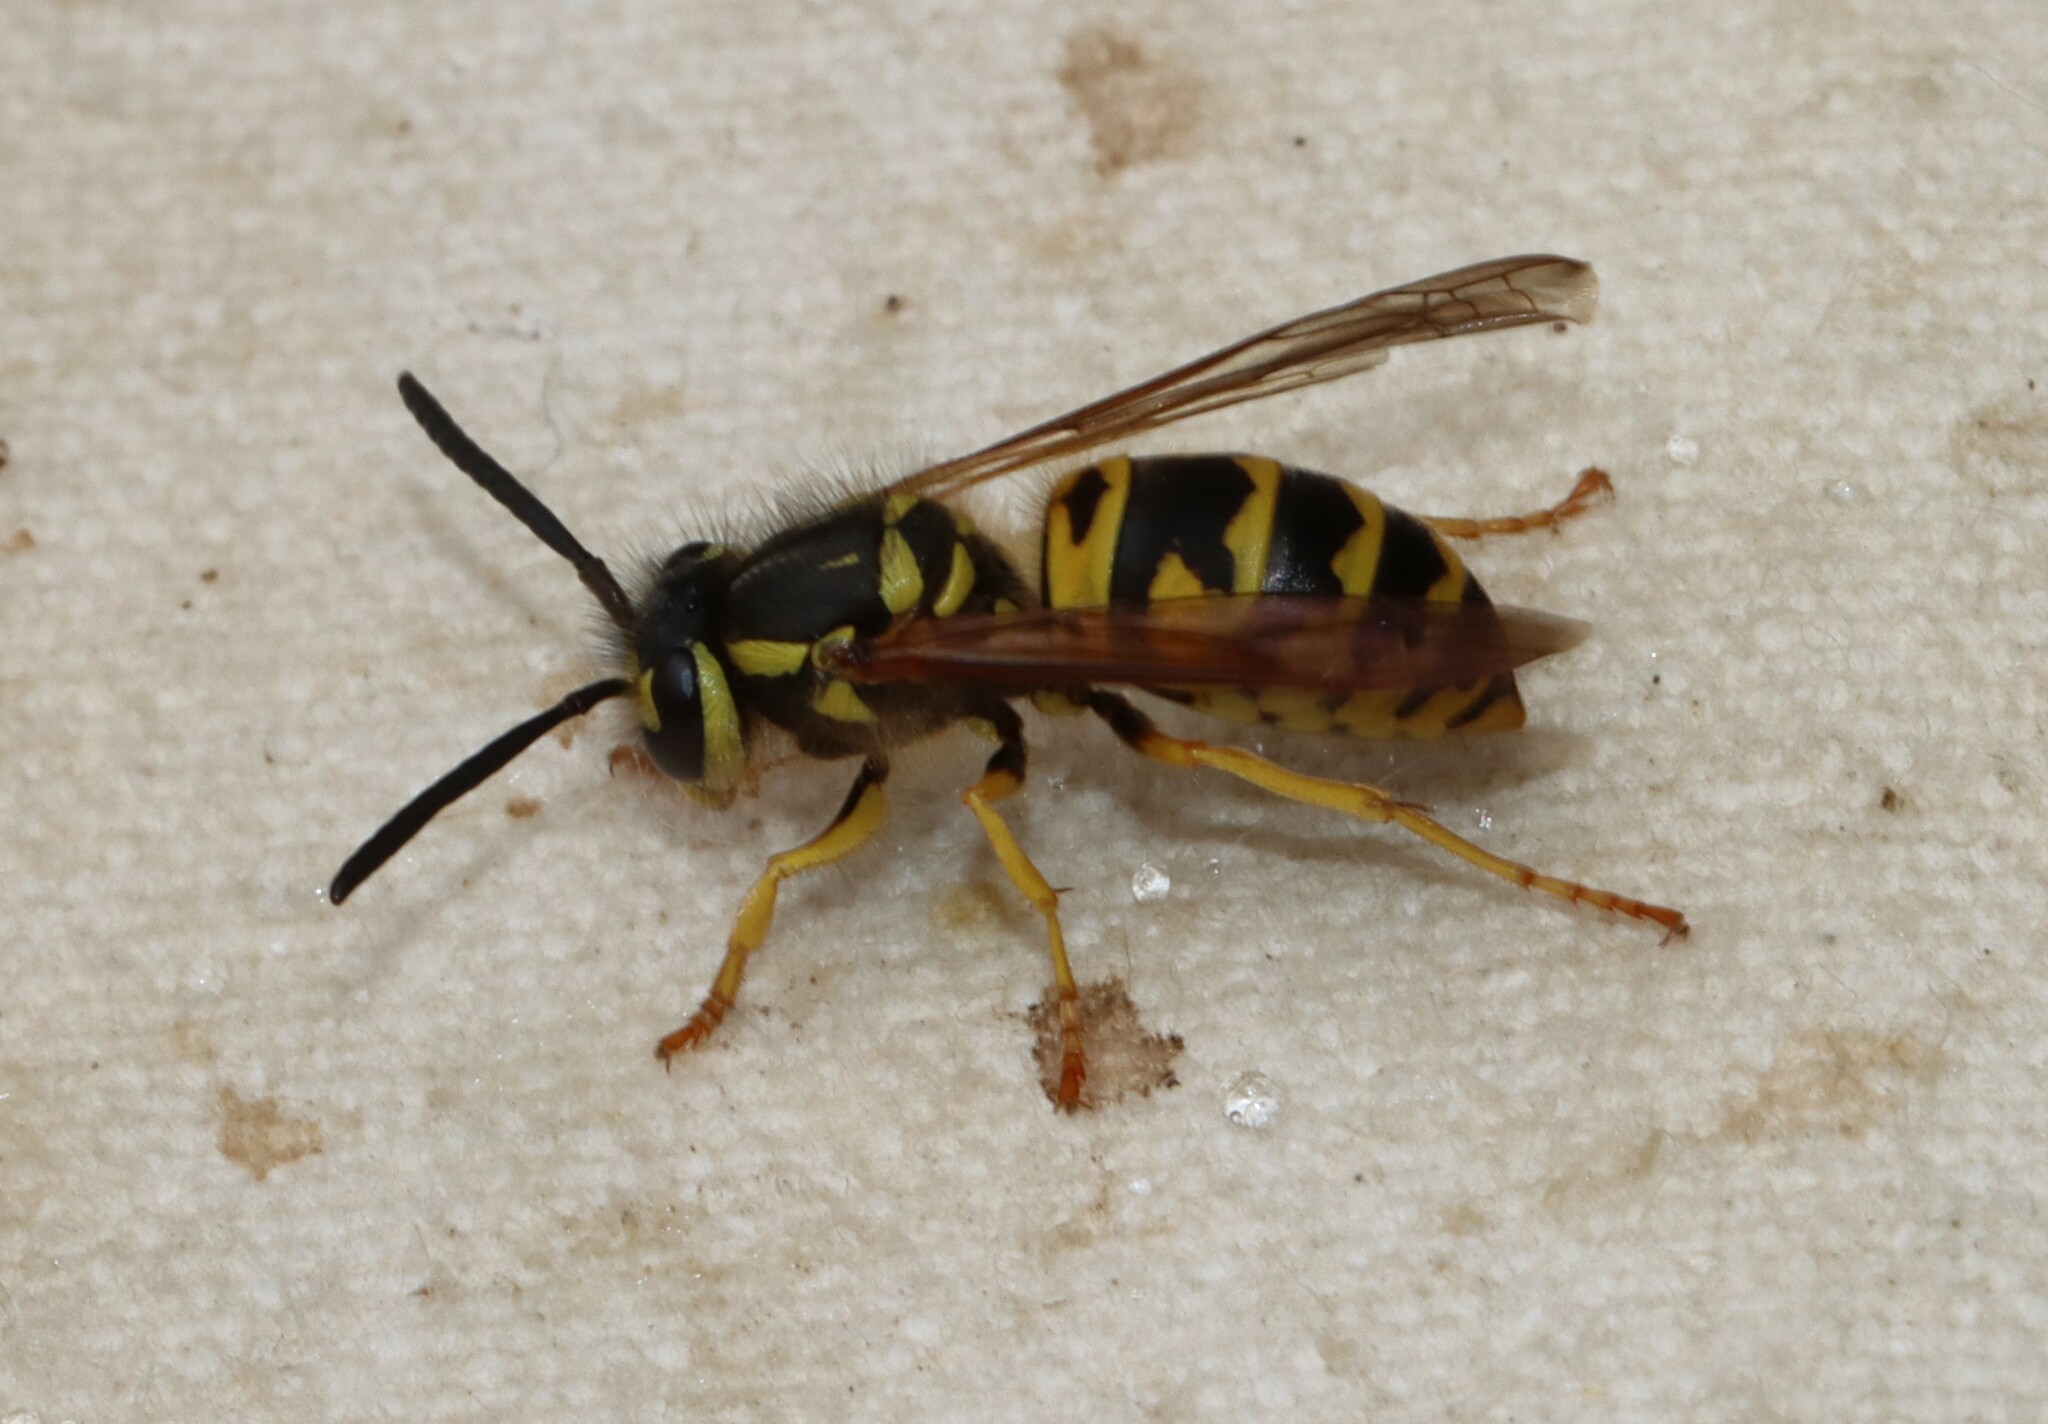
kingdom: Animalia
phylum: Arthropoda
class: Insecta
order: Hymenoptera
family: Vespidae
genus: Vespula
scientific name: Vespula maculifrons
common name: Eastern yellowjacket
